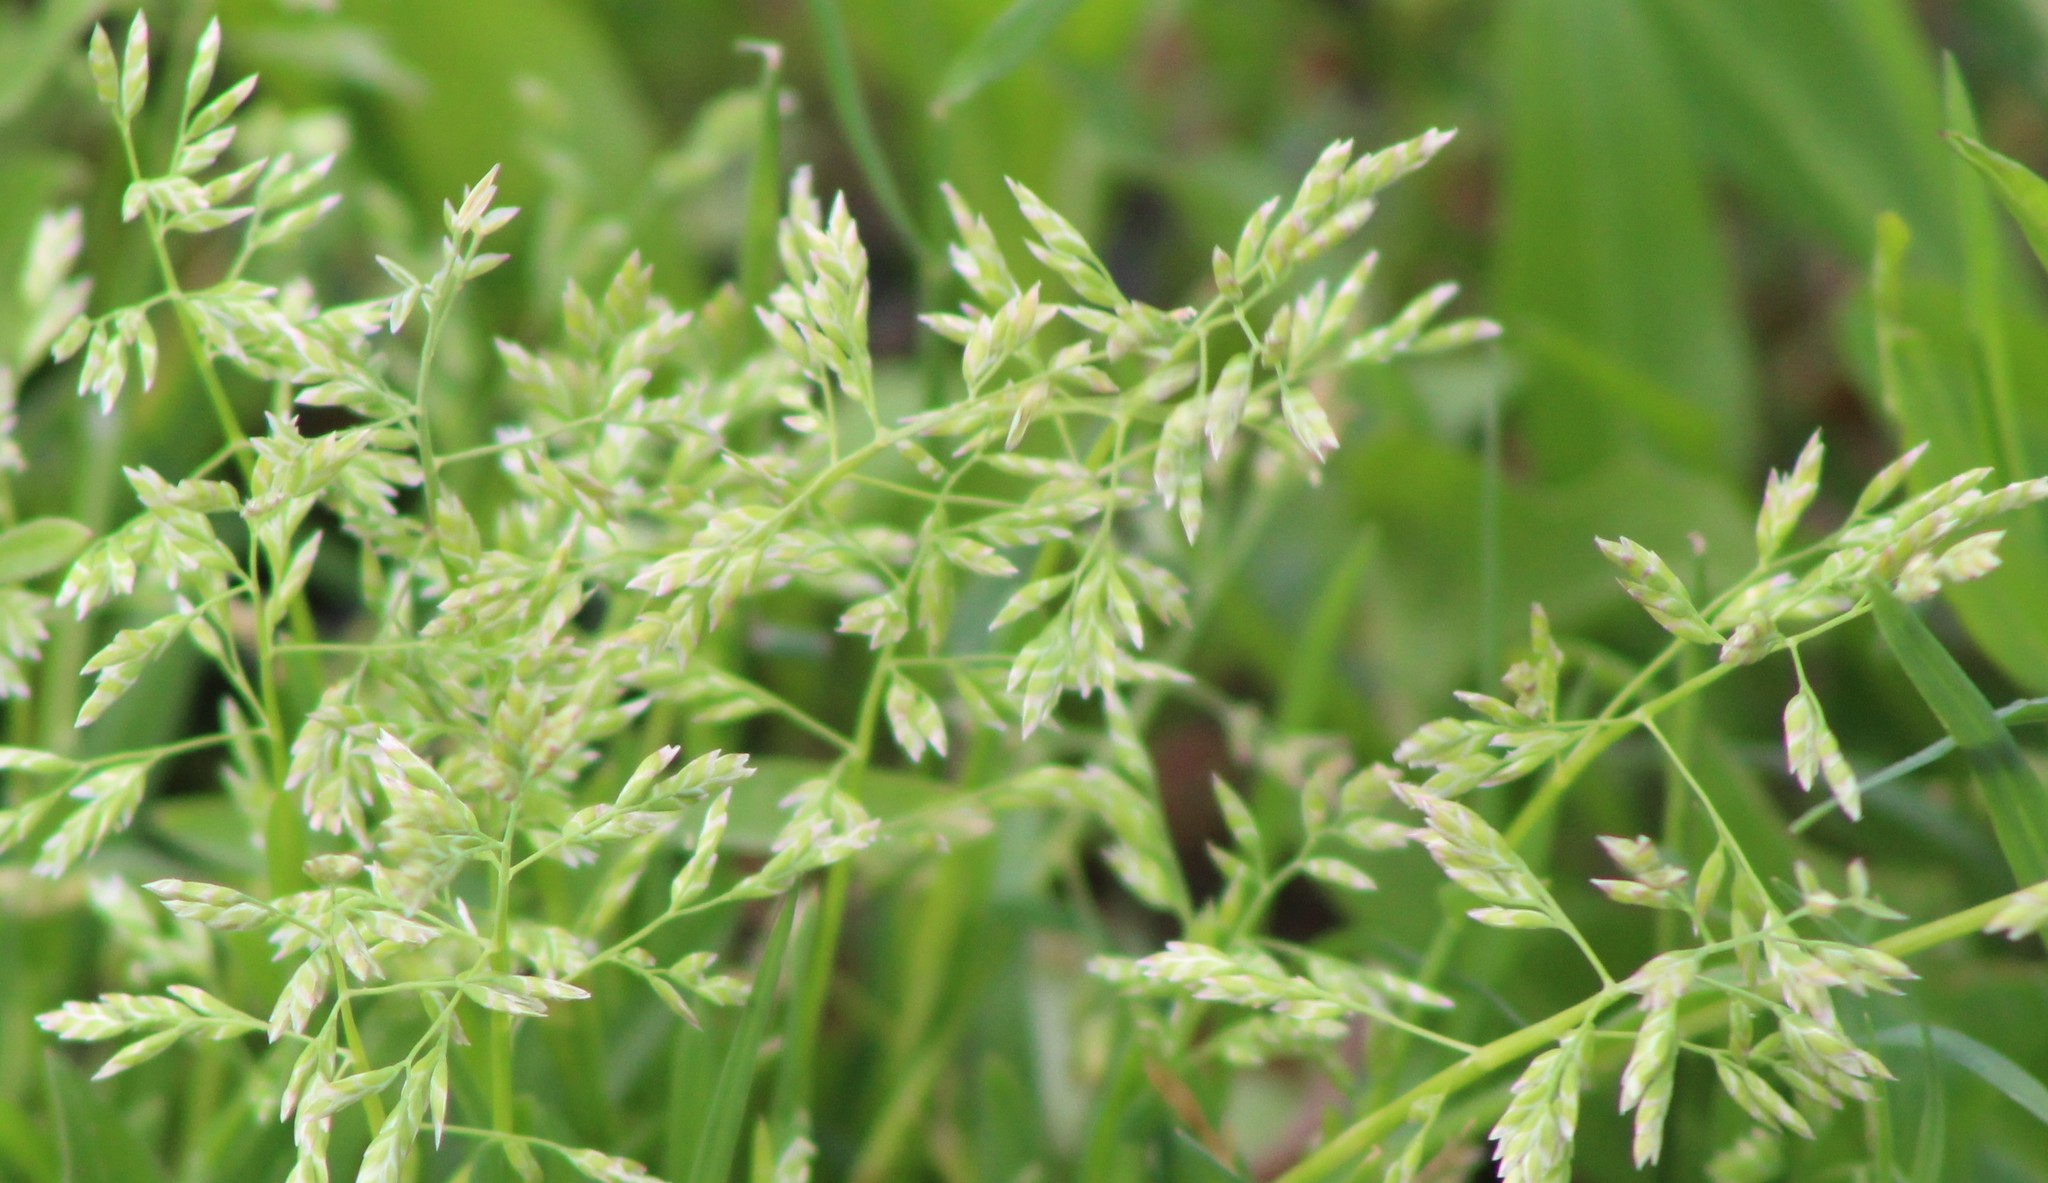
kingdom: Plantae
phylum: Tracheophyta
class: Liliopsida
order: Poales
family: Poaceae
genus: Poa
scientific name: Poa annua
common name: Annual bluegrass
